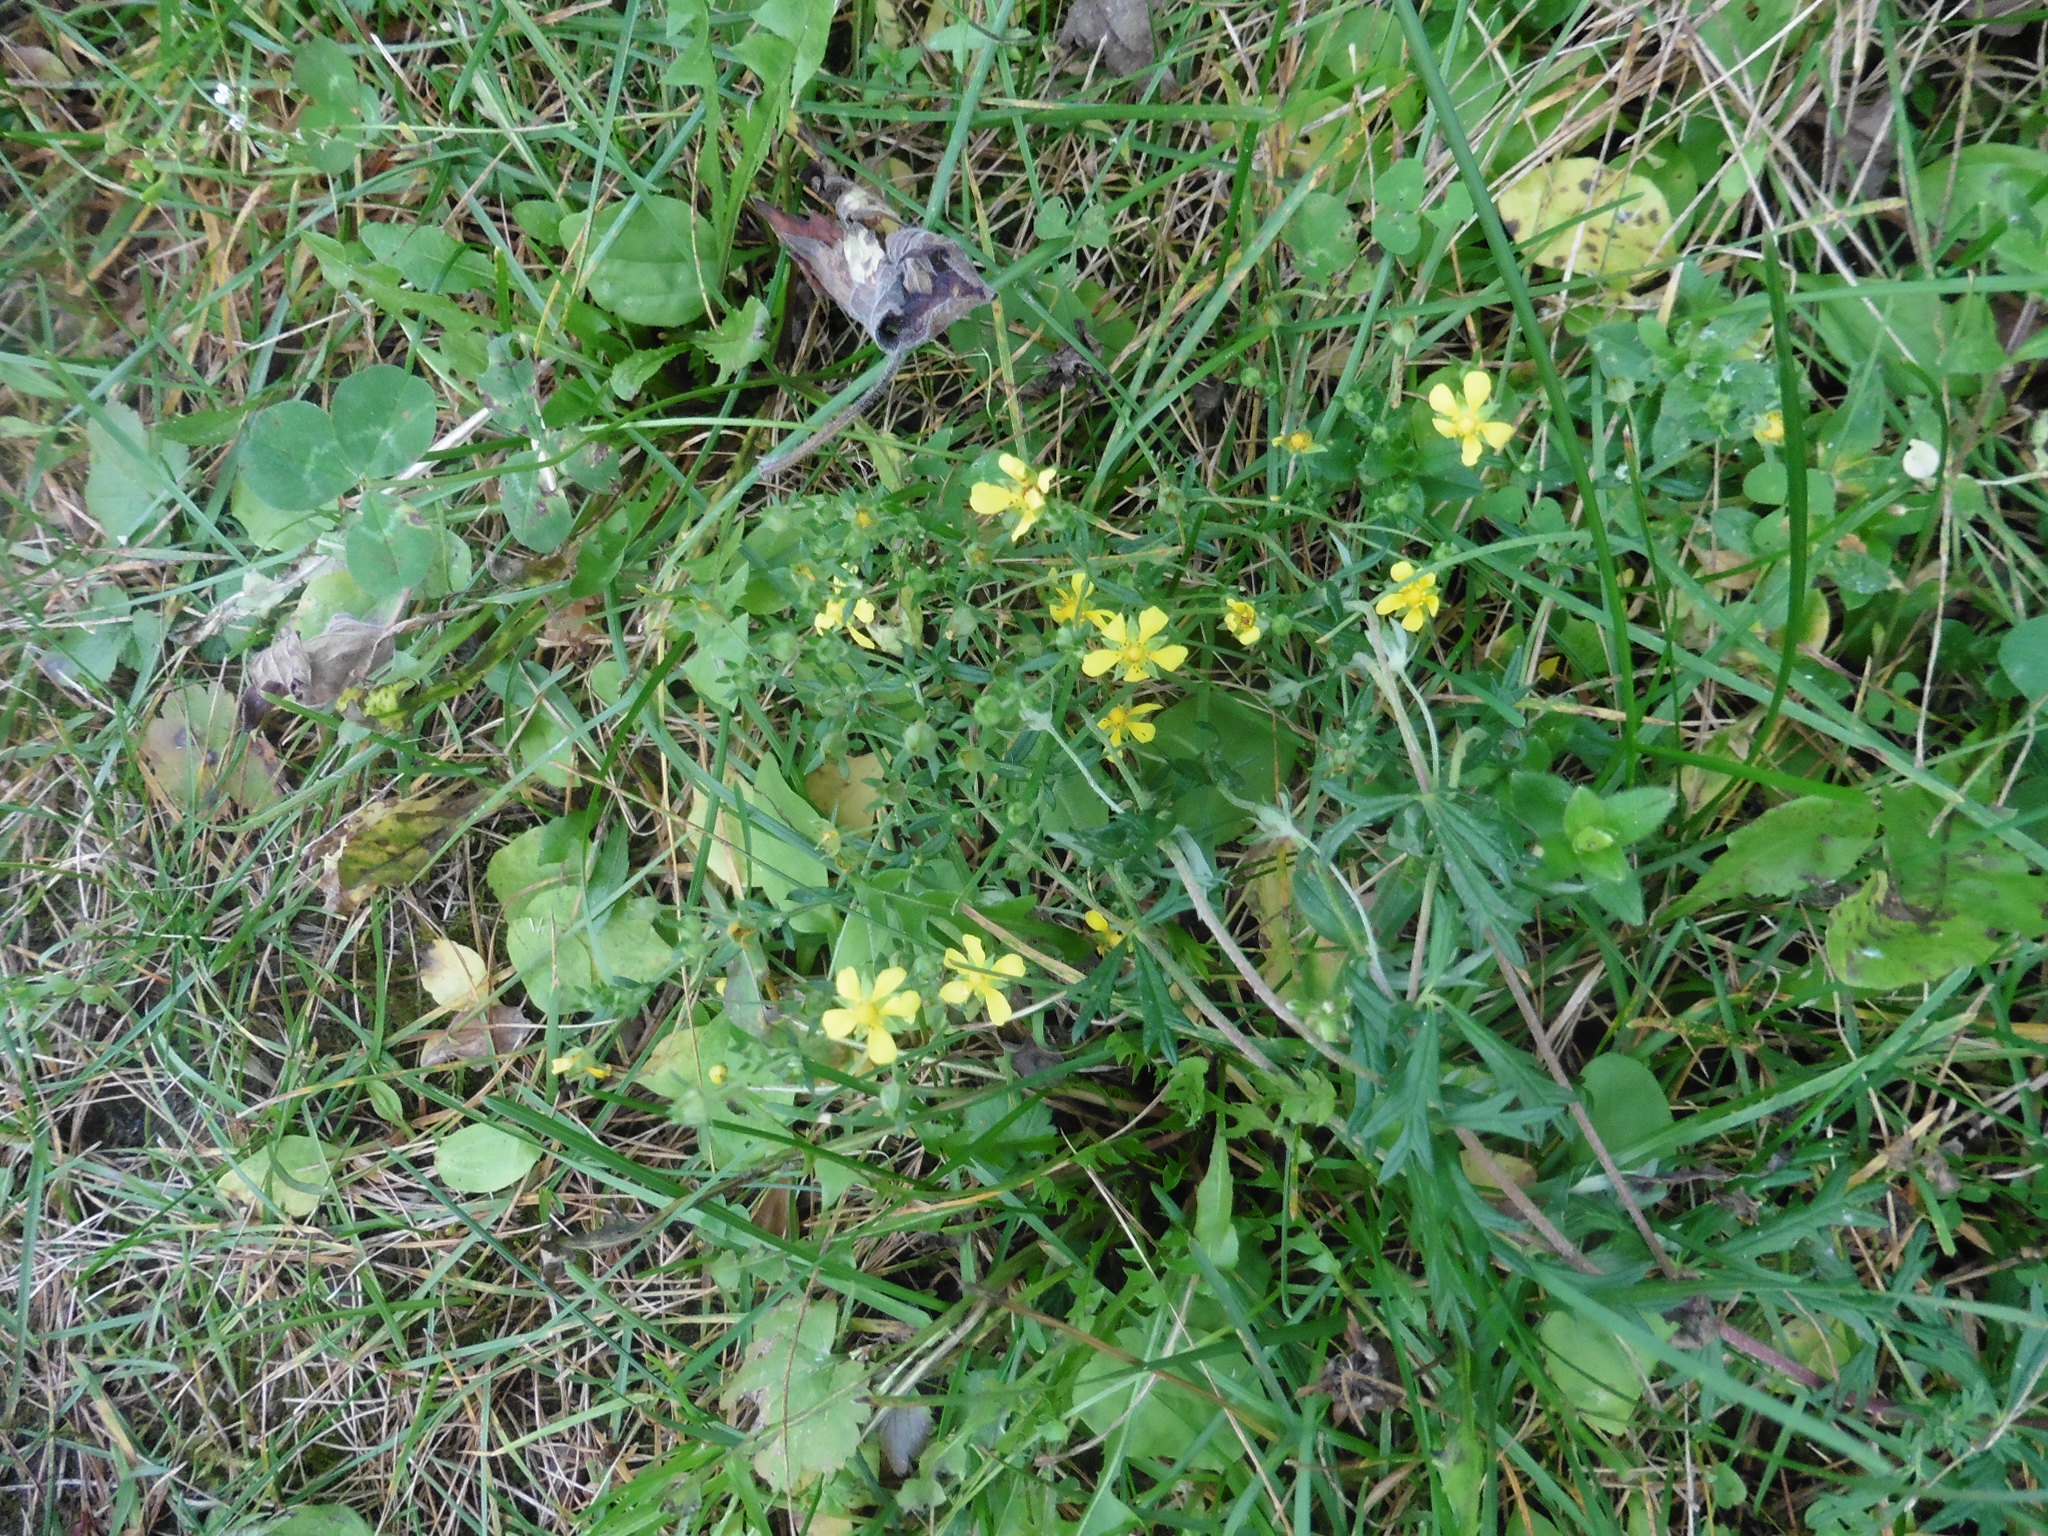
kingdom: Plantae
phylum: Tracheophyta
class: Magnoliopsida
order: Rosales
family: Rosaceae
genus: Potentilla
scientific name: Potentilla argentea
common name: Hoary cinquefoil
